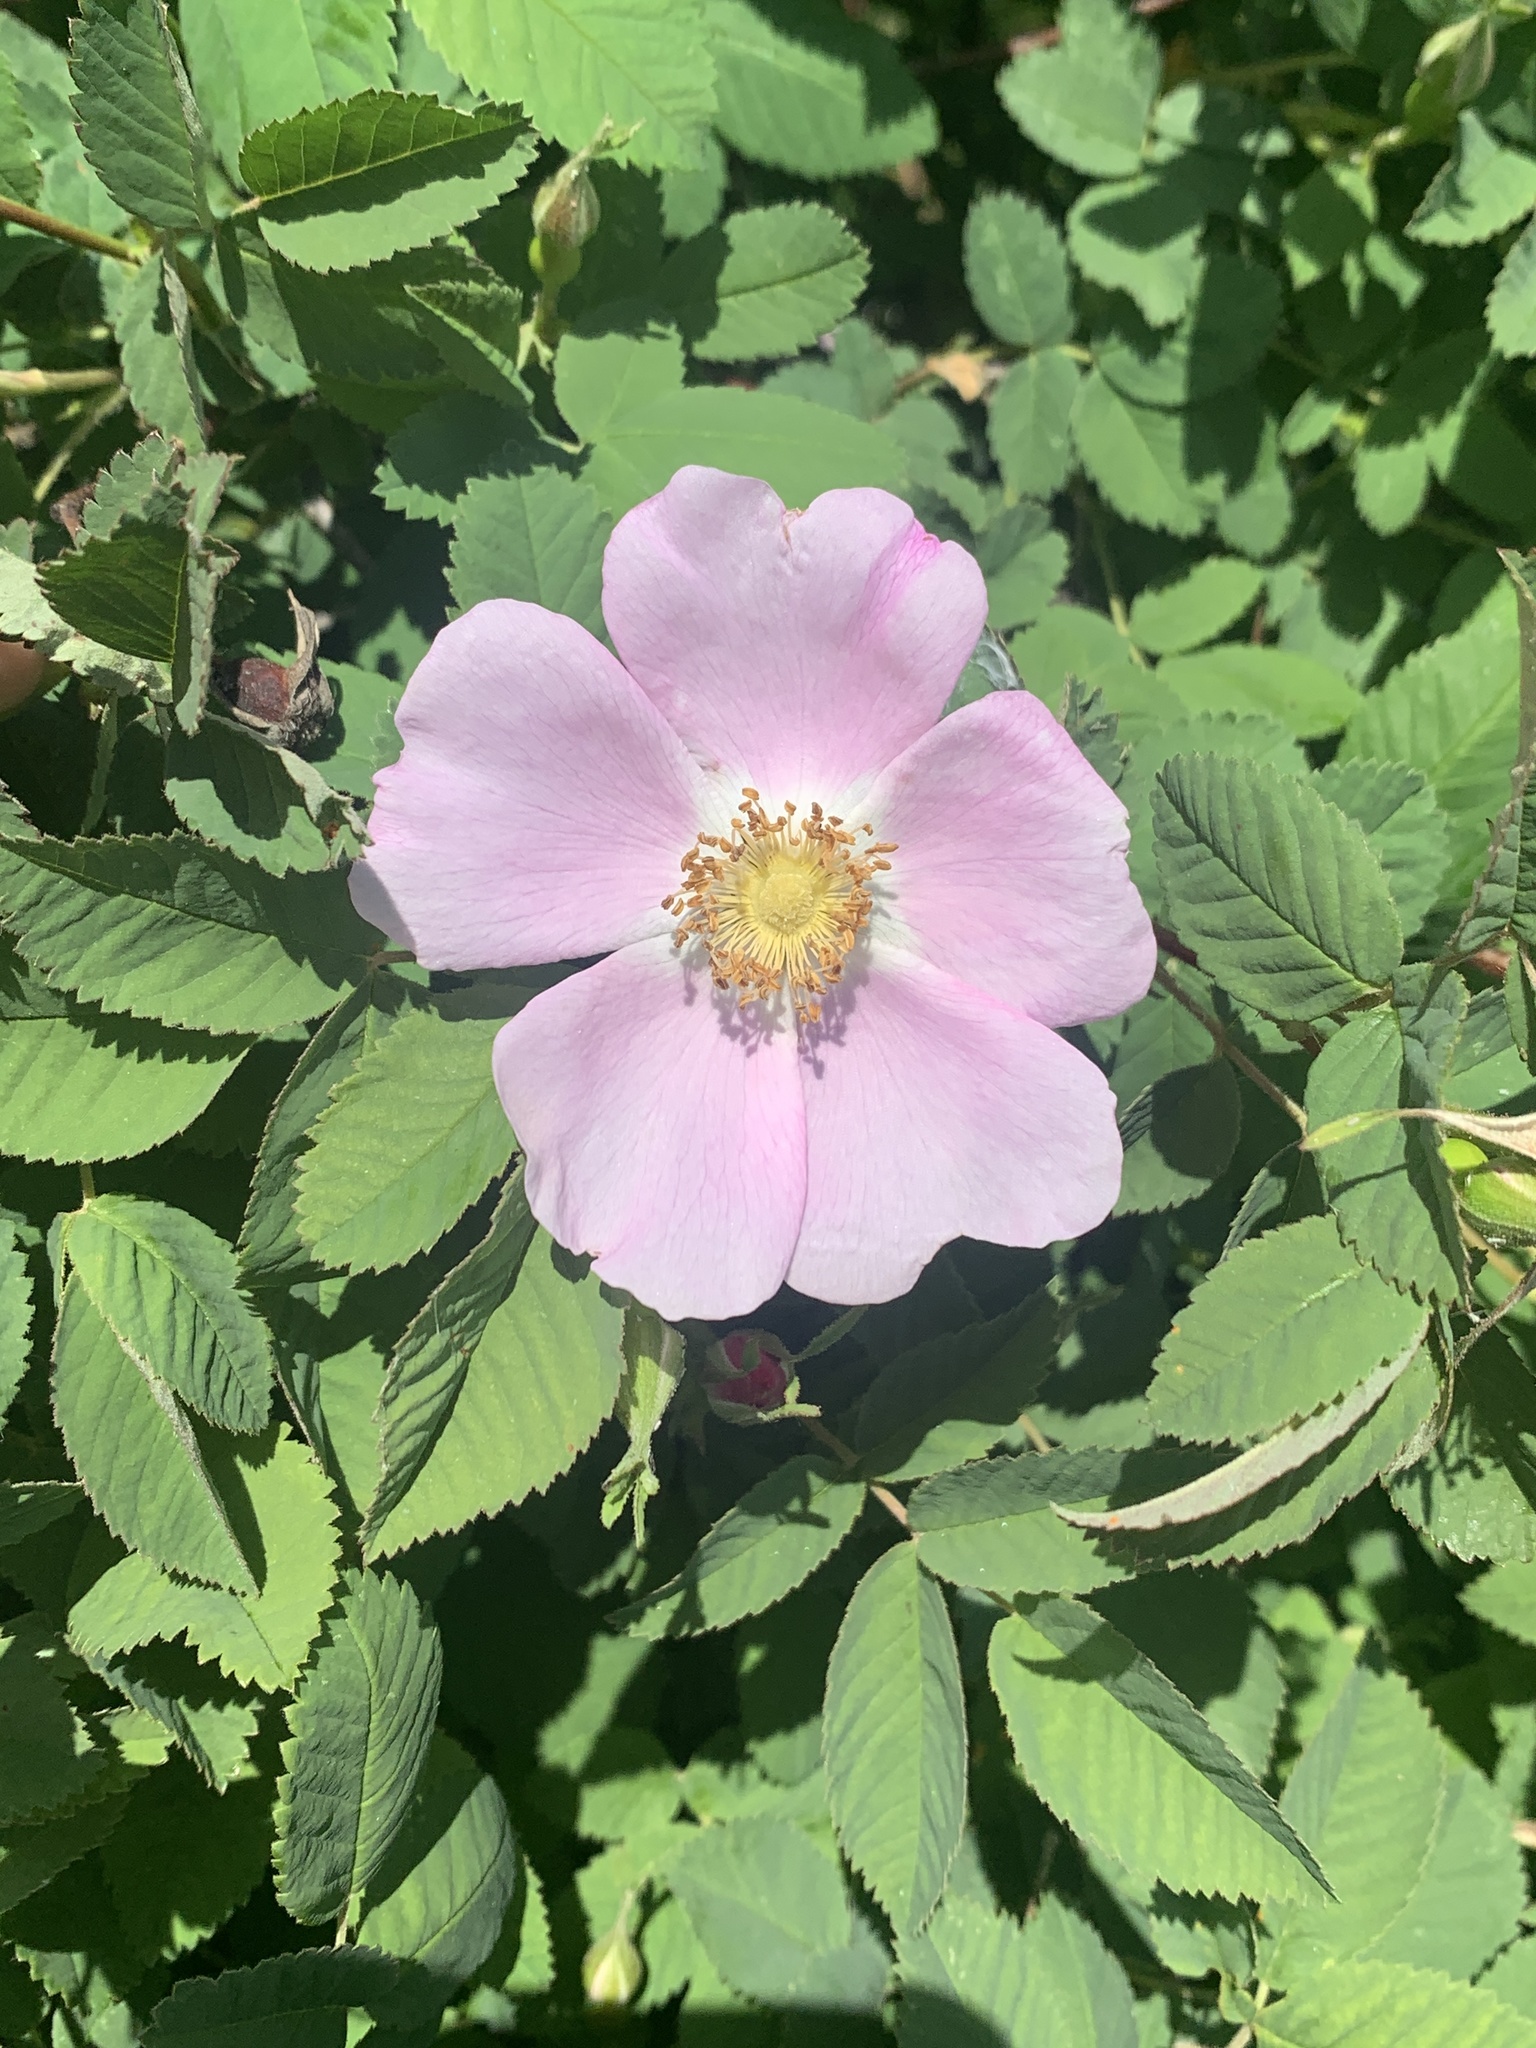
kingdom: Plantae
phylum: Tracheophyta
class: Magnoliopsida
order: Rosales
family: Rosaceae
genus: Rosa
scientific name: Rosa nutkana
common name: Nootka rose
